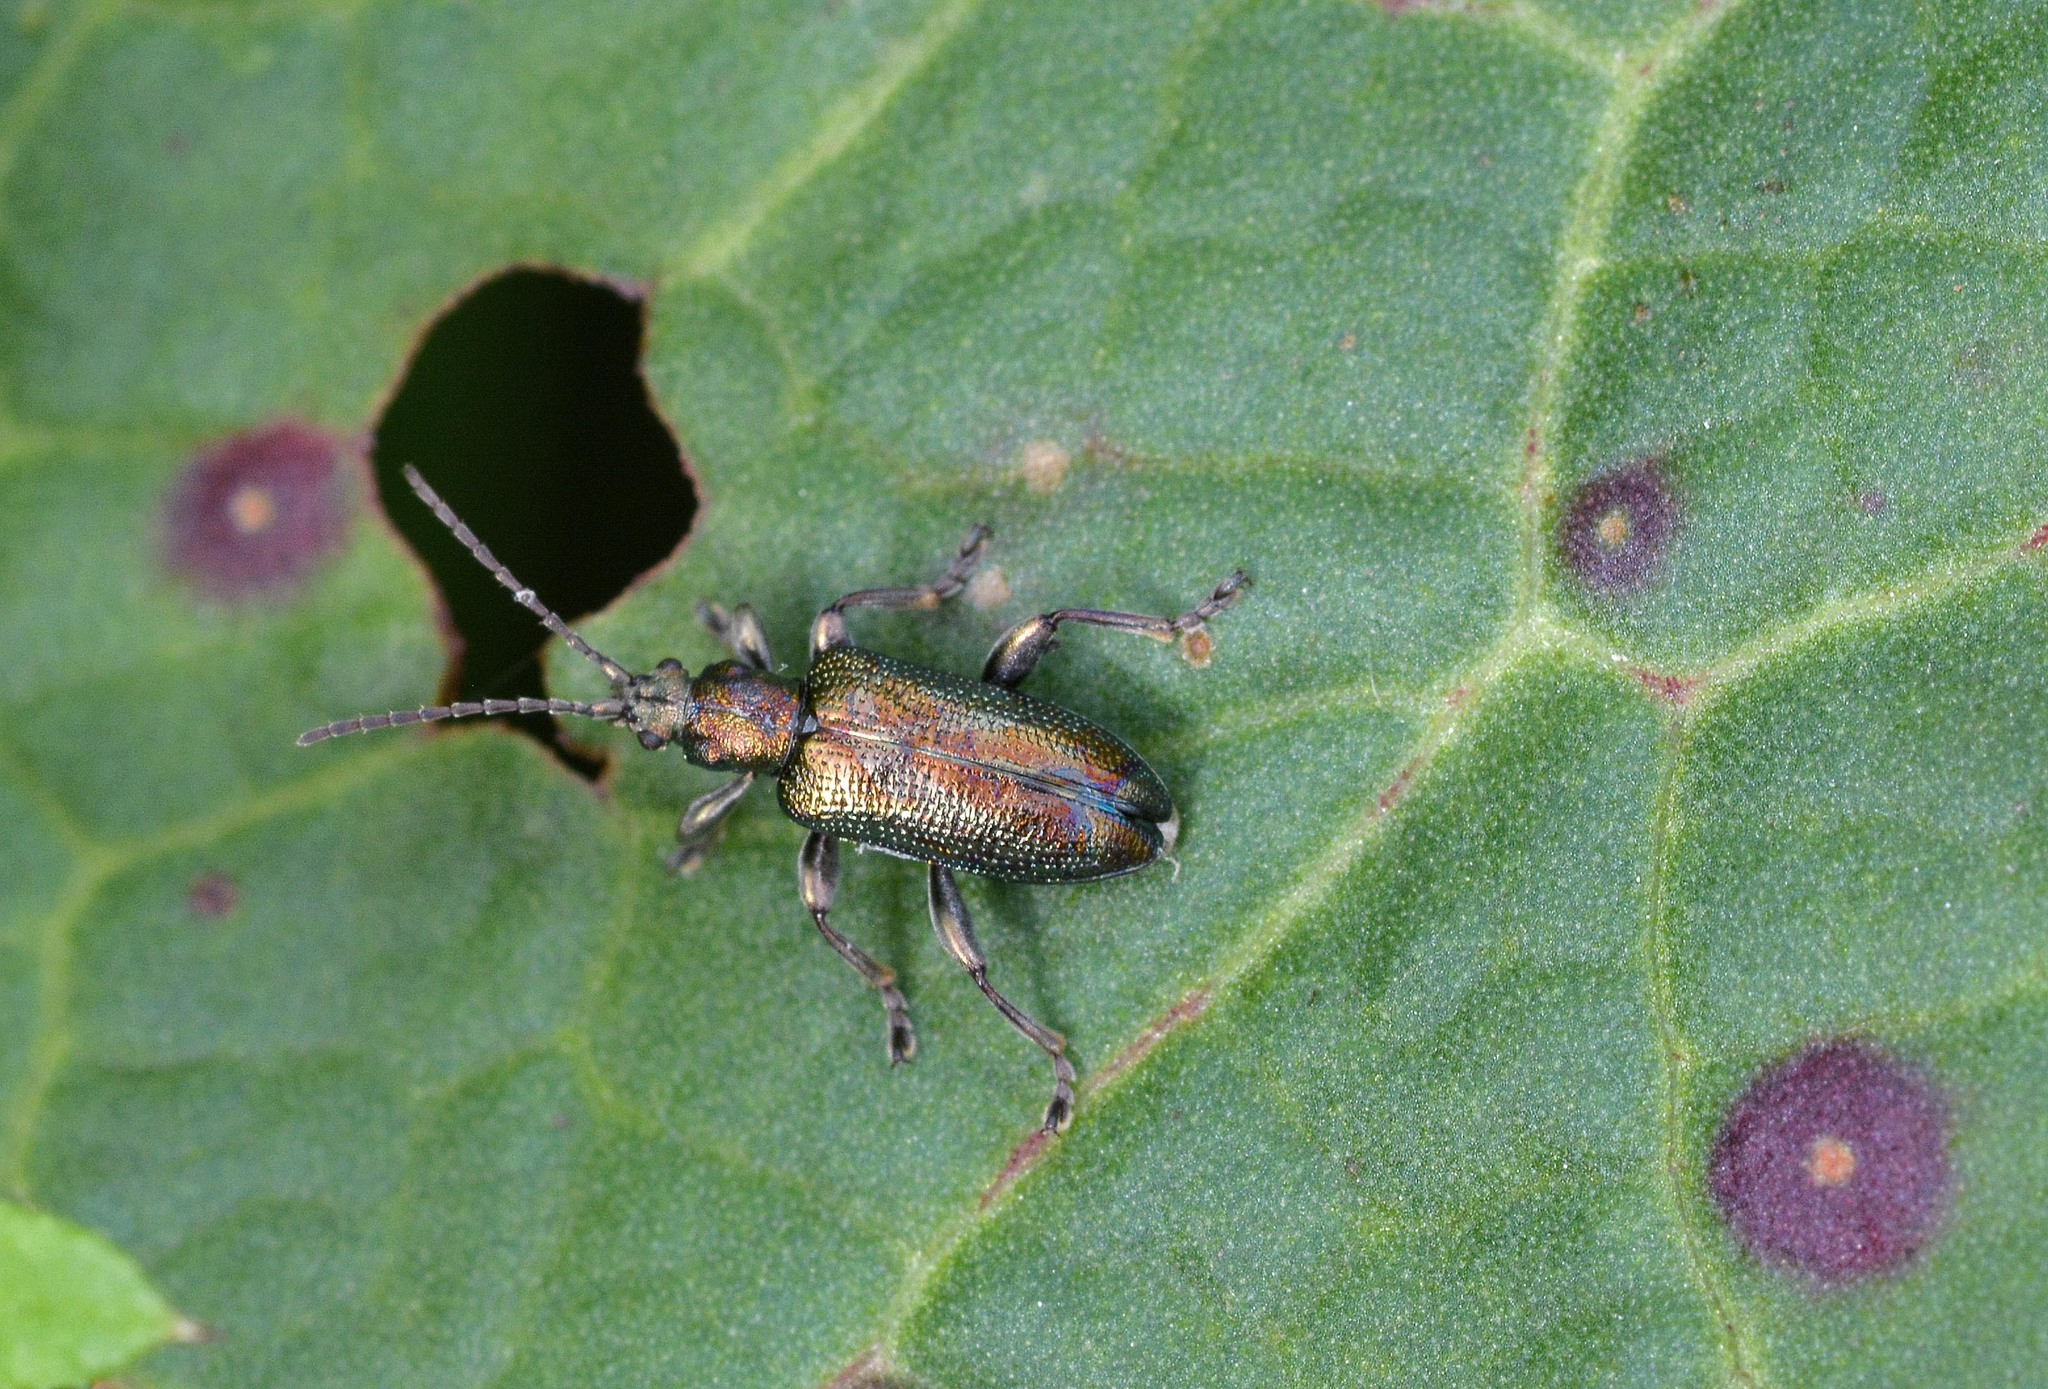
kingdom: Animalia
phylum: Arthropoda
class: Insecta
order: Coleoptera
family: Chrysomelidae
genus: Plateumaris
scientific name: Plateumaris sericea
